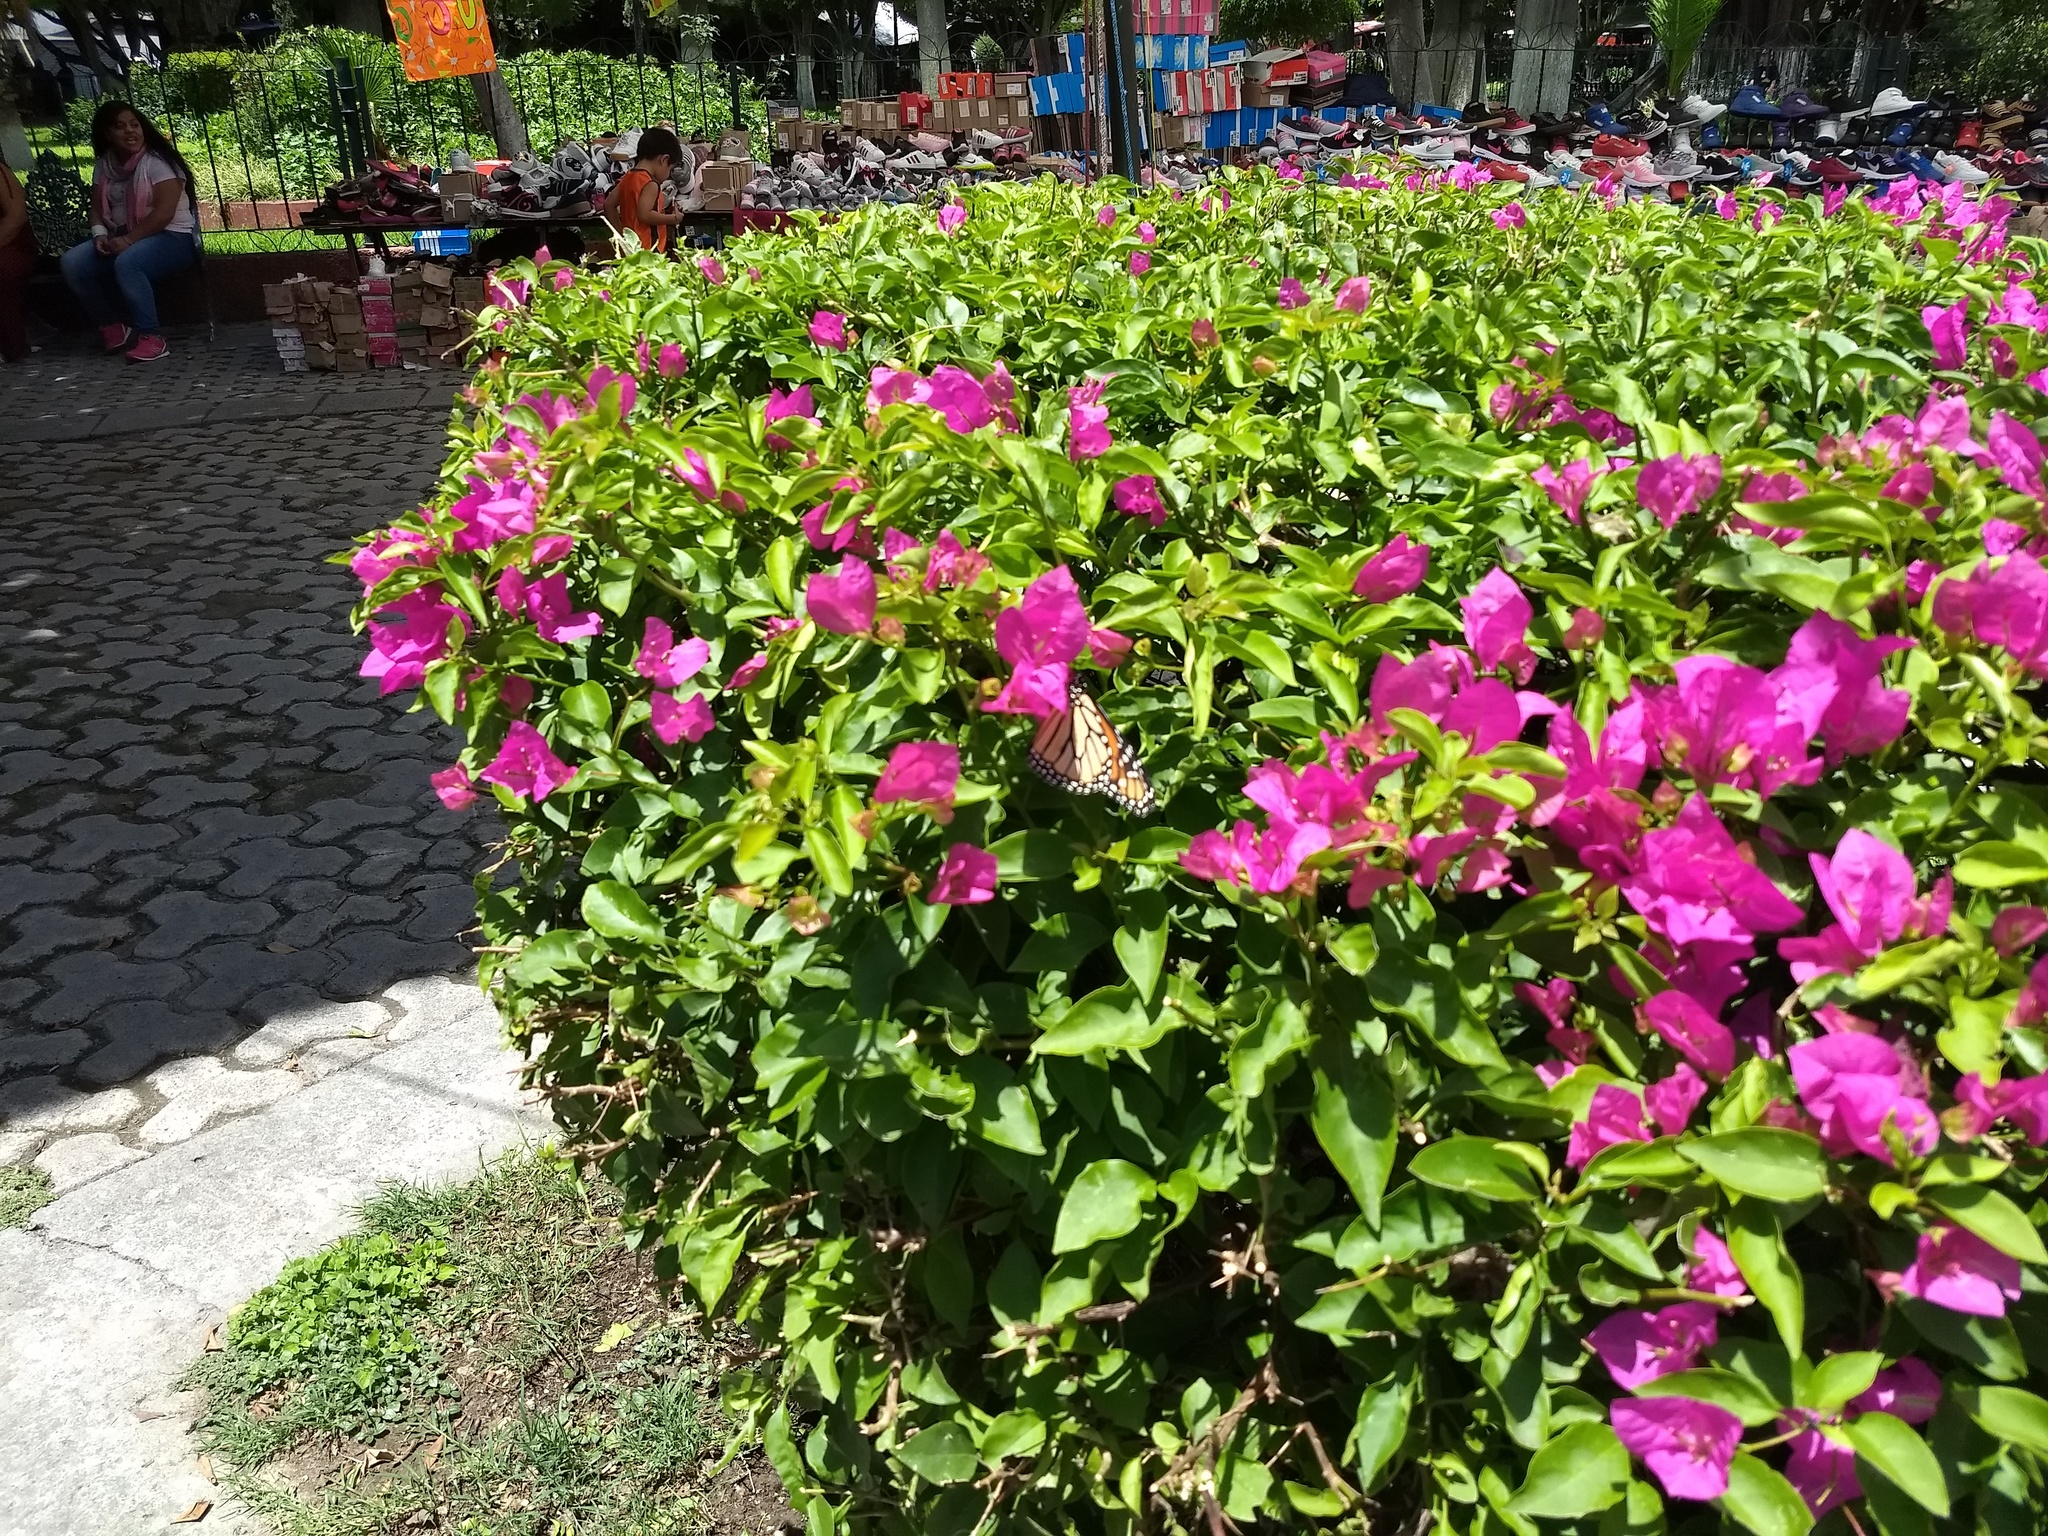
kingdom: Animalia
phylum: Arthropoda
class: Insecta
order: Lepidoptera
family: Nymphalidae
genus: Danaus
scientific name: Danaus plexippus
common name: Monarch
